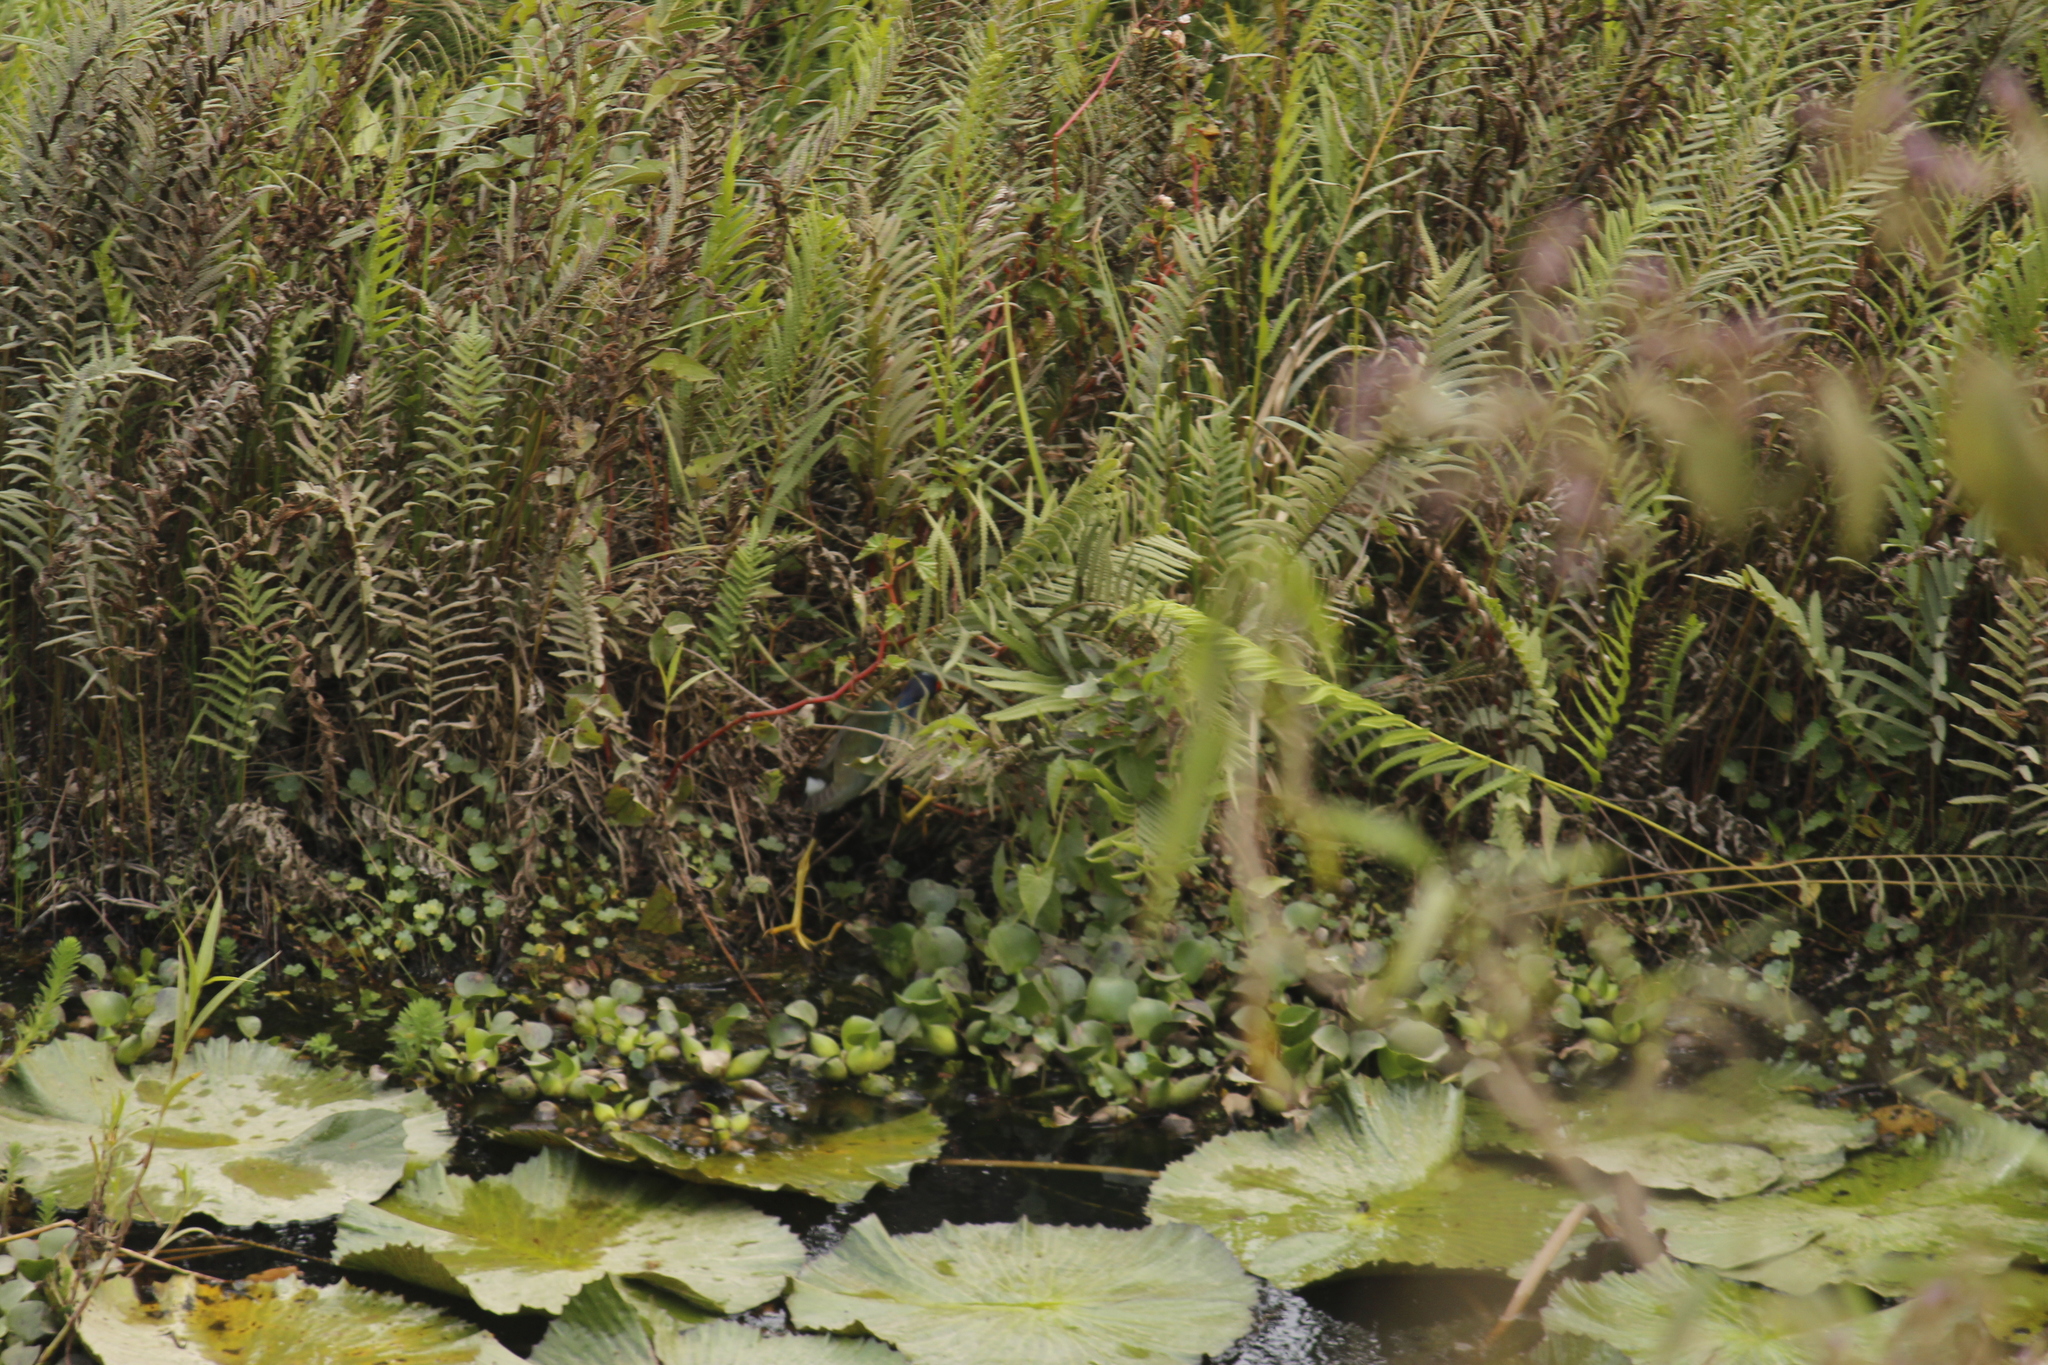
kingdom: Animalia
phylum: Chordata
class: Aves
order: Gruiformes
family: Rallidae
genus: Porphyrio
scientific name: Porphyrio martinica
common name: Purple gallinule
